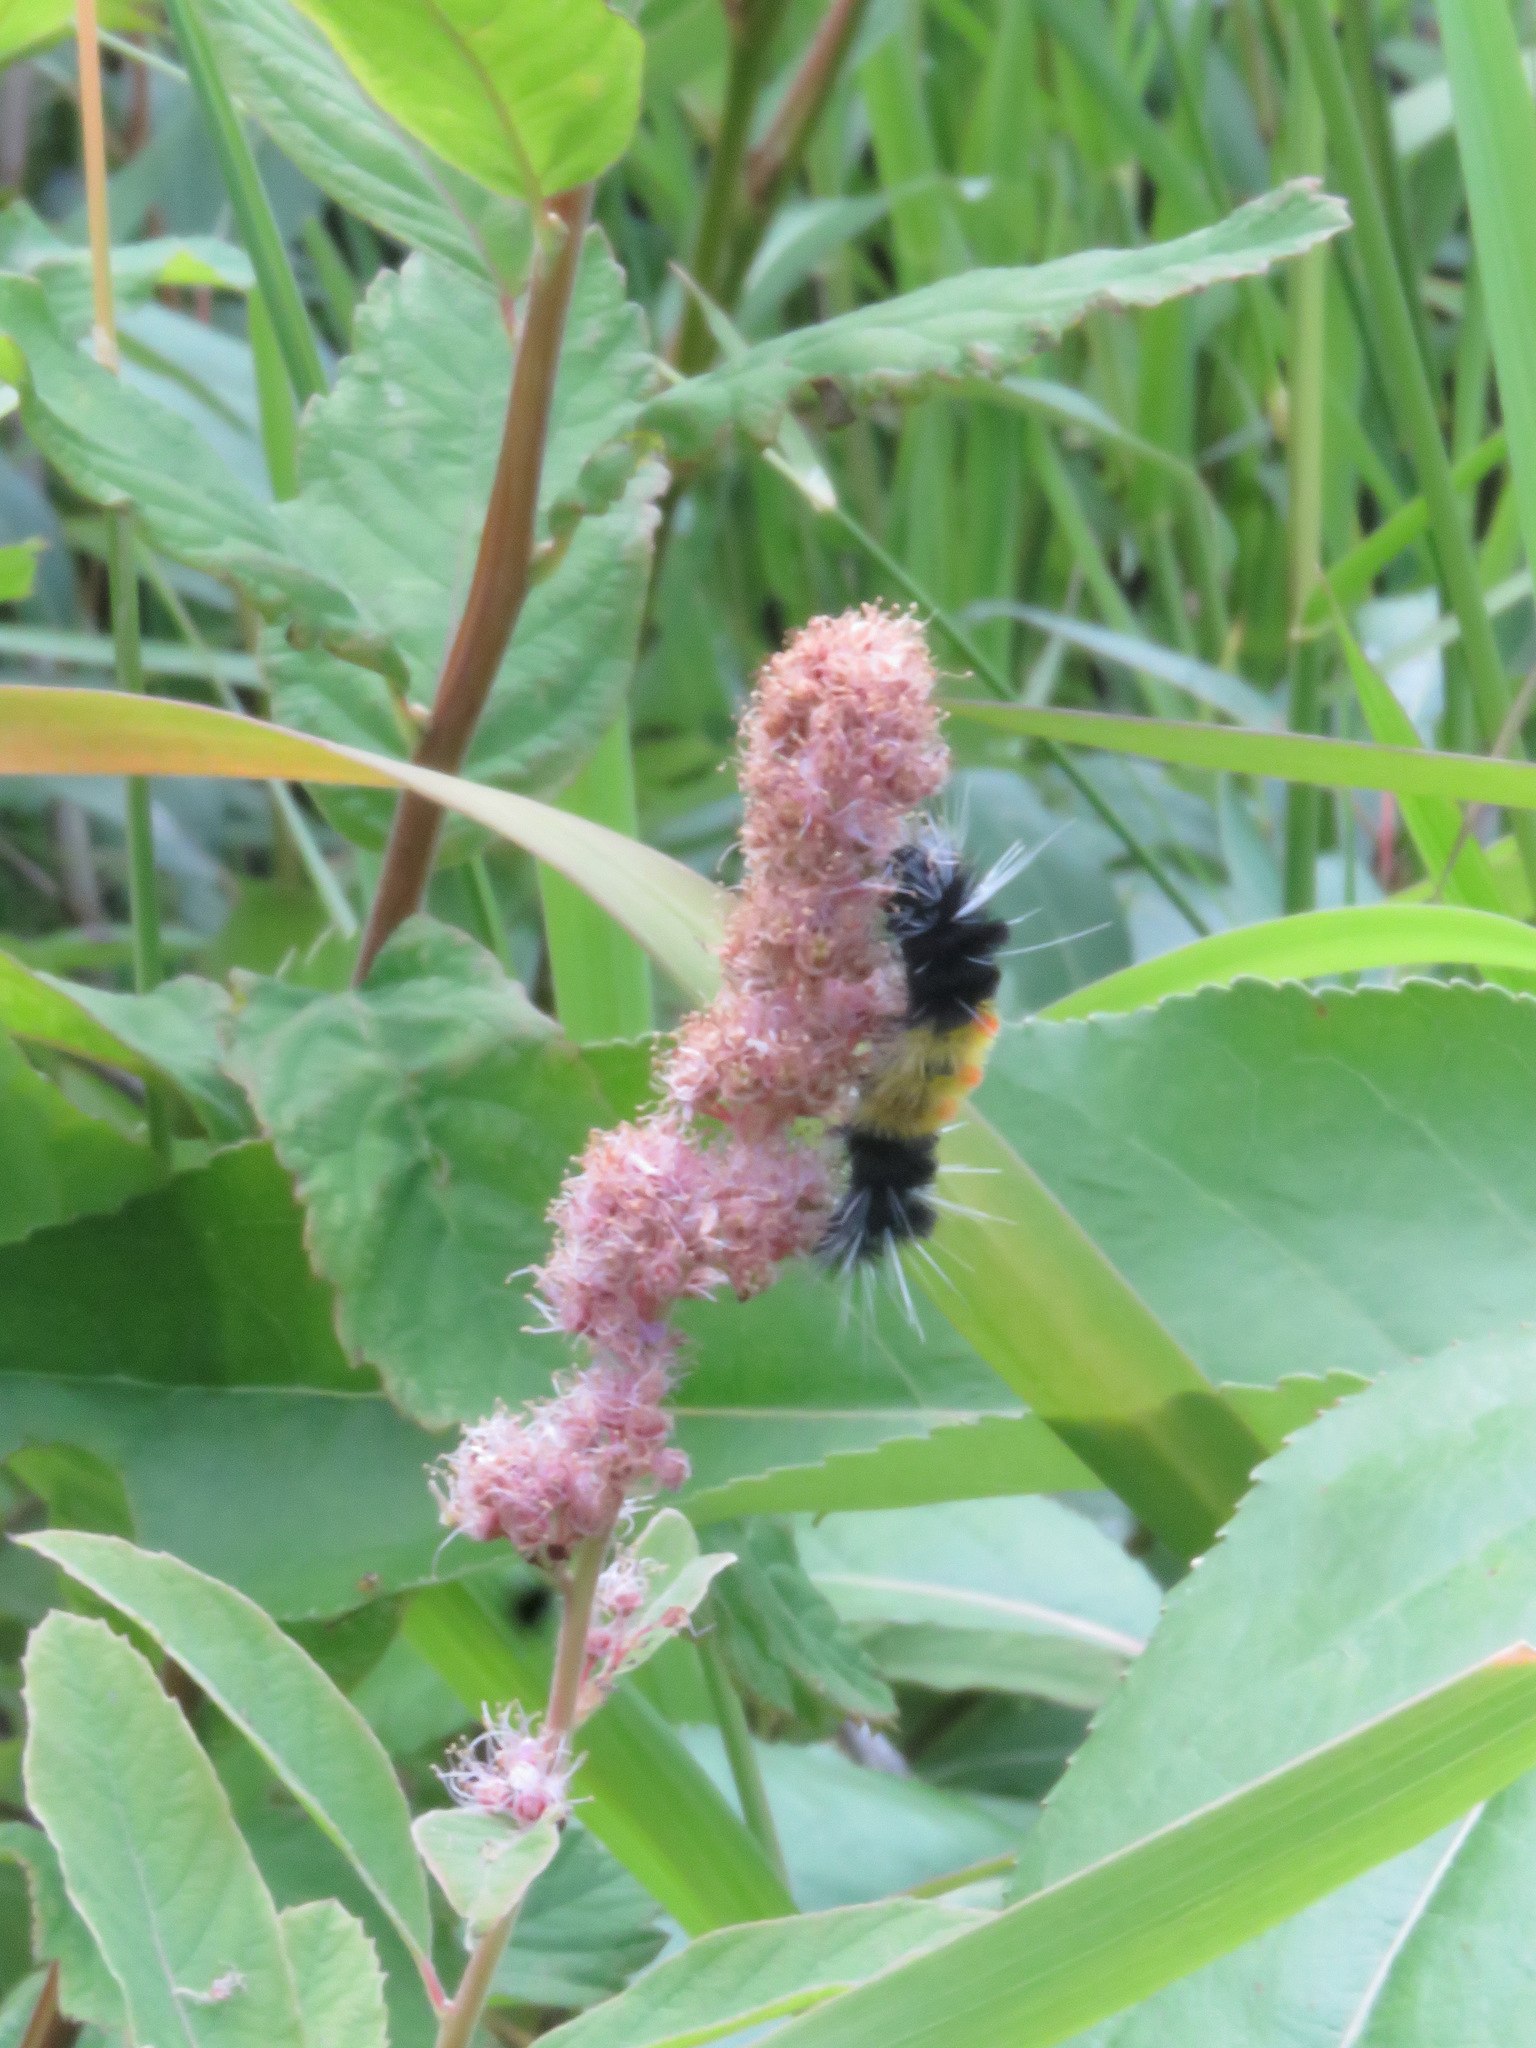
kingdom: Animalia
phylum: Arthropoda
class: Insecta
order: Lepidoptera
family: Erebidae
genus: Lophocampa
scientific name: Lophocampa maculata
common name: Spotted tussock moth
